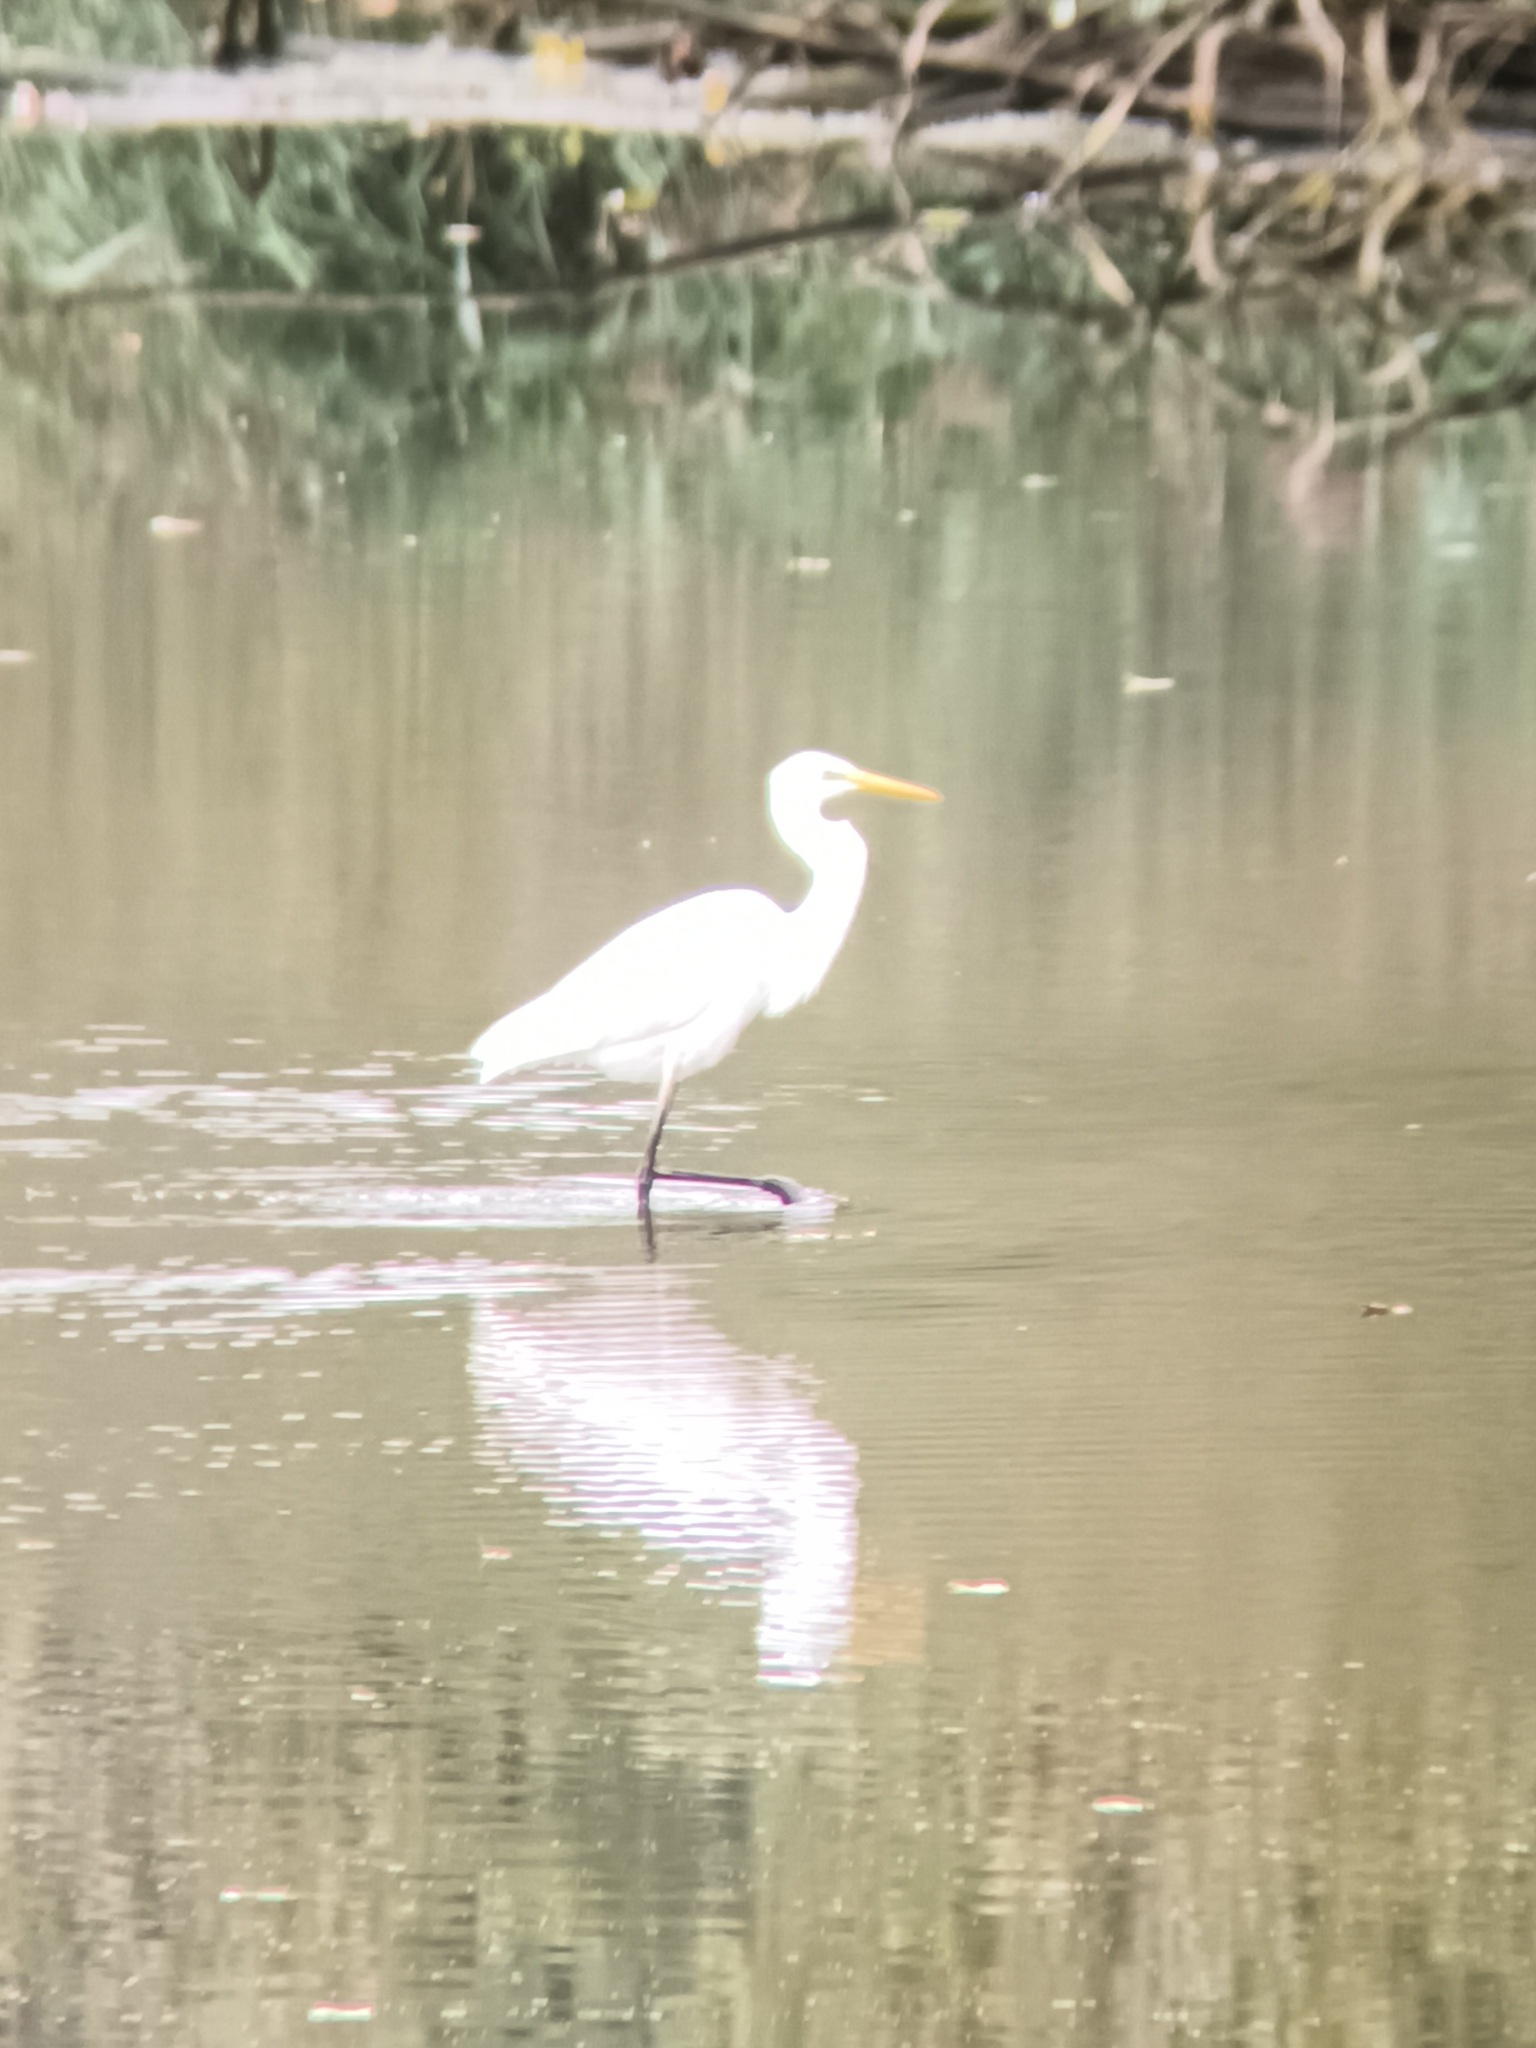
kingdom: Animalia
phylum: Chordata
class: Aves
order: Pelecaniformes
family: Ardeidae
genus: Ardea
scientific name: Ardea alba
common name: Great egret
